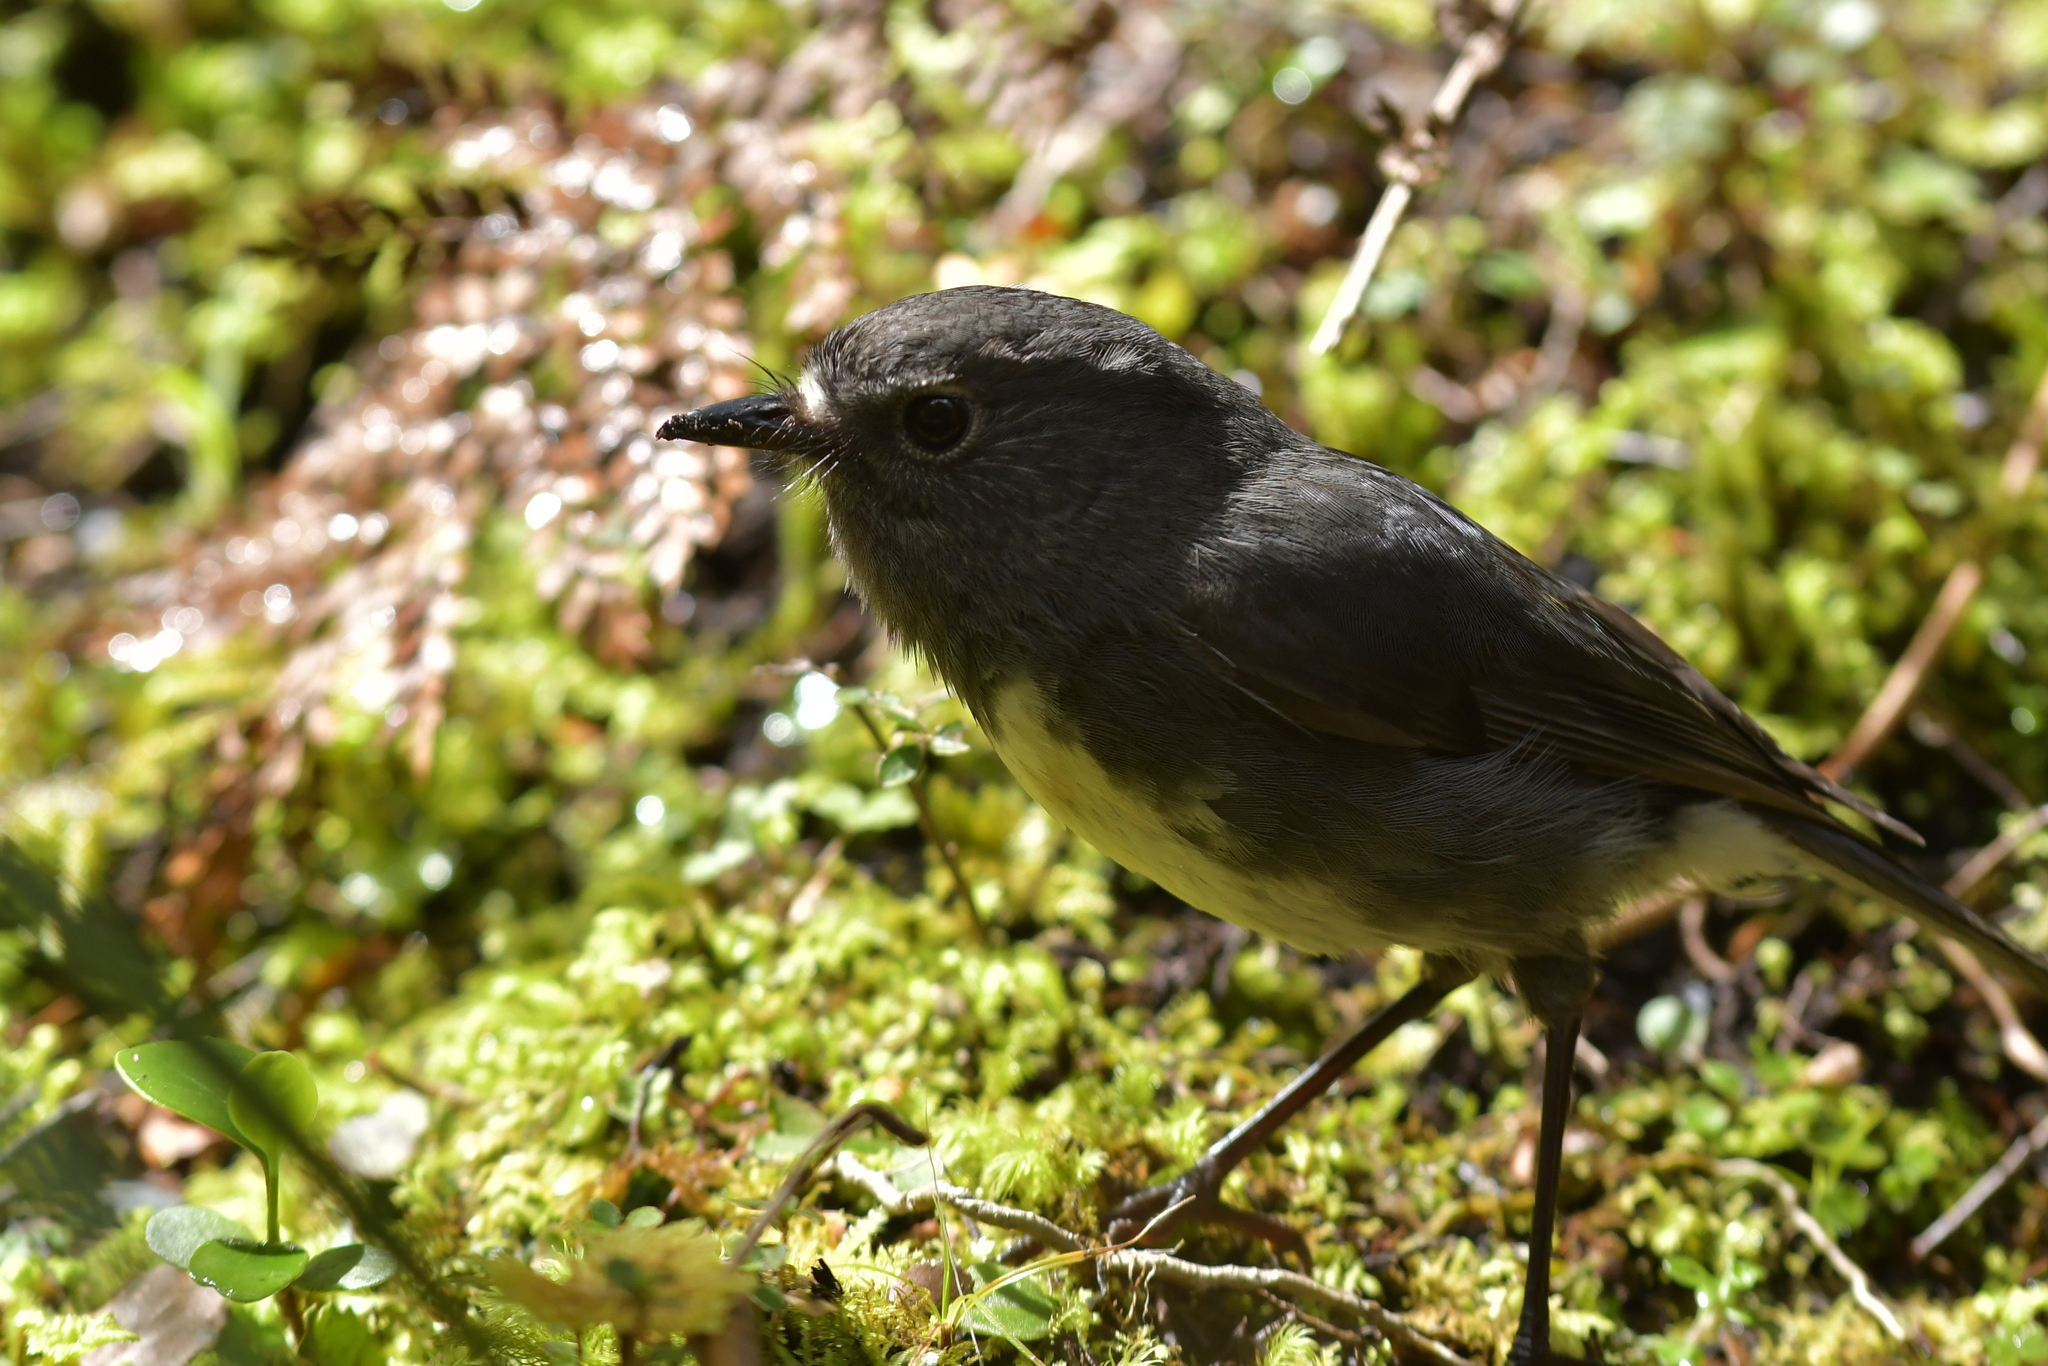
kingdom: Animalia
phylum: Chordata
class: Aves
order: Passeriformes
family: Petroicidae
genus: Petroica
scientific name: Petroica australis
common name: New zealand robin
